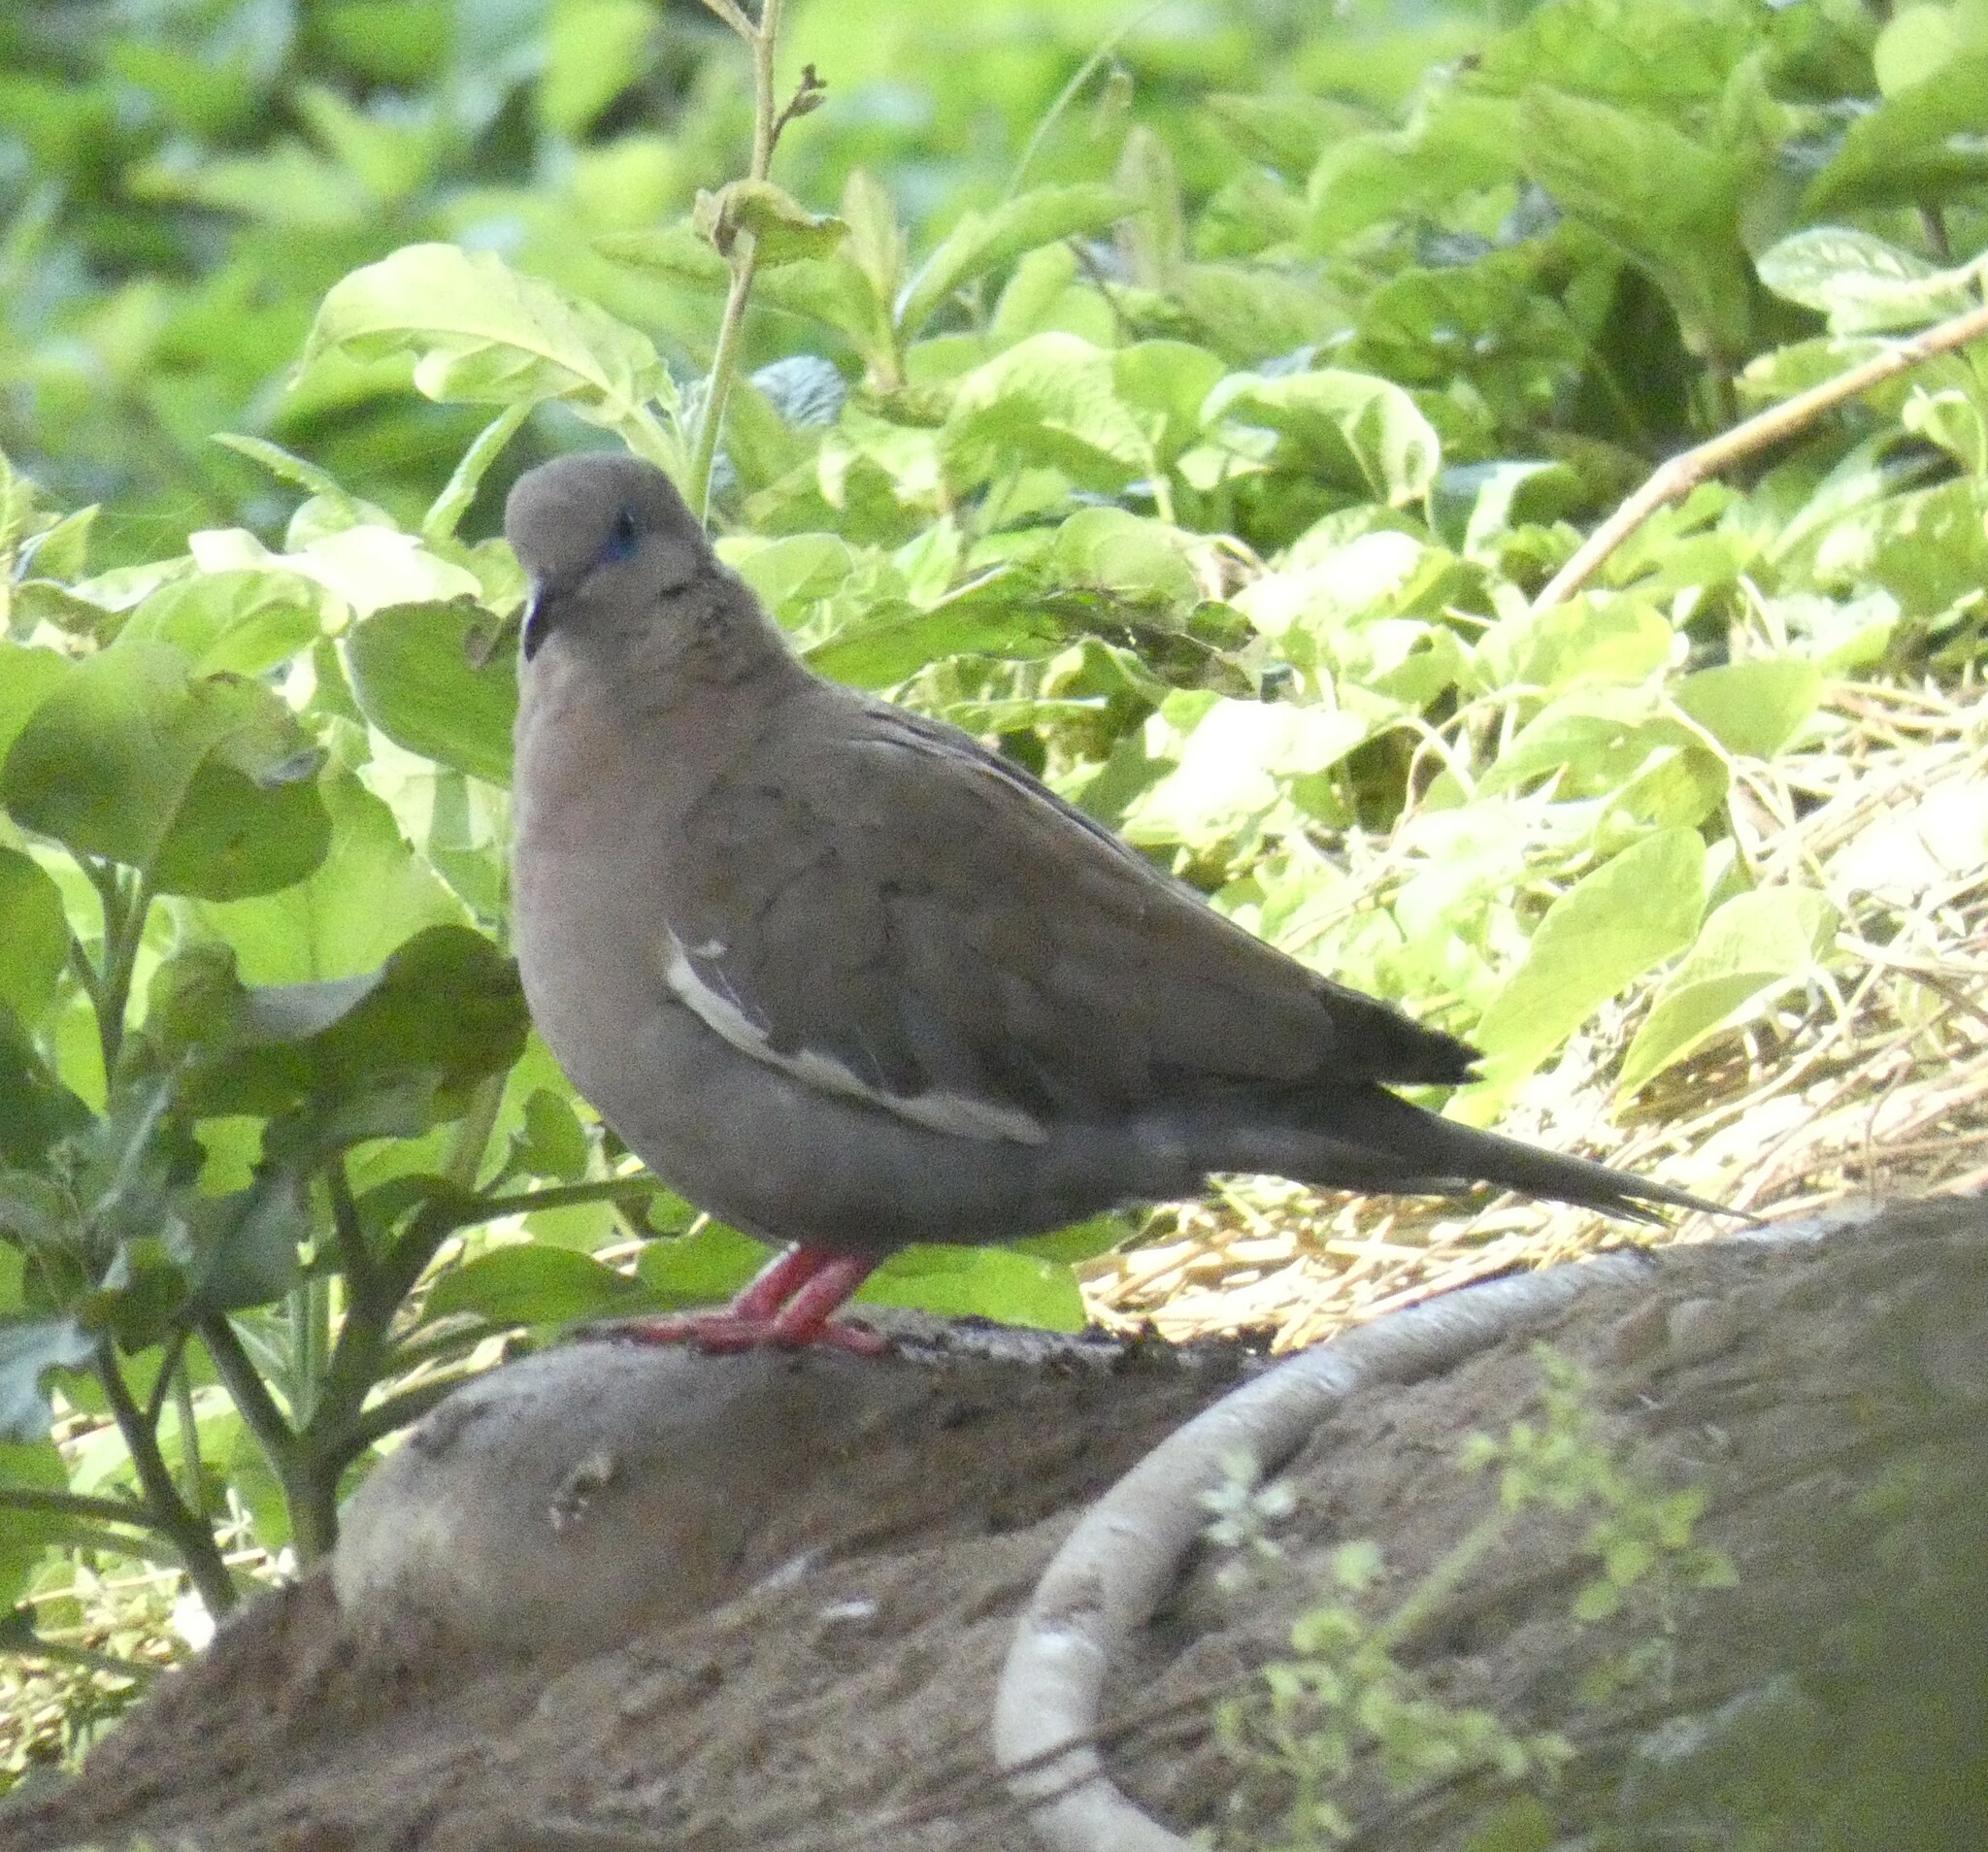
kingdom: Animalia
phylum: Chordata
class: Aves
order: Columbiformes
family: Columbidae
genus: Zenaida
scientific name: Zenaida meloda
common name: West peruvian dove
